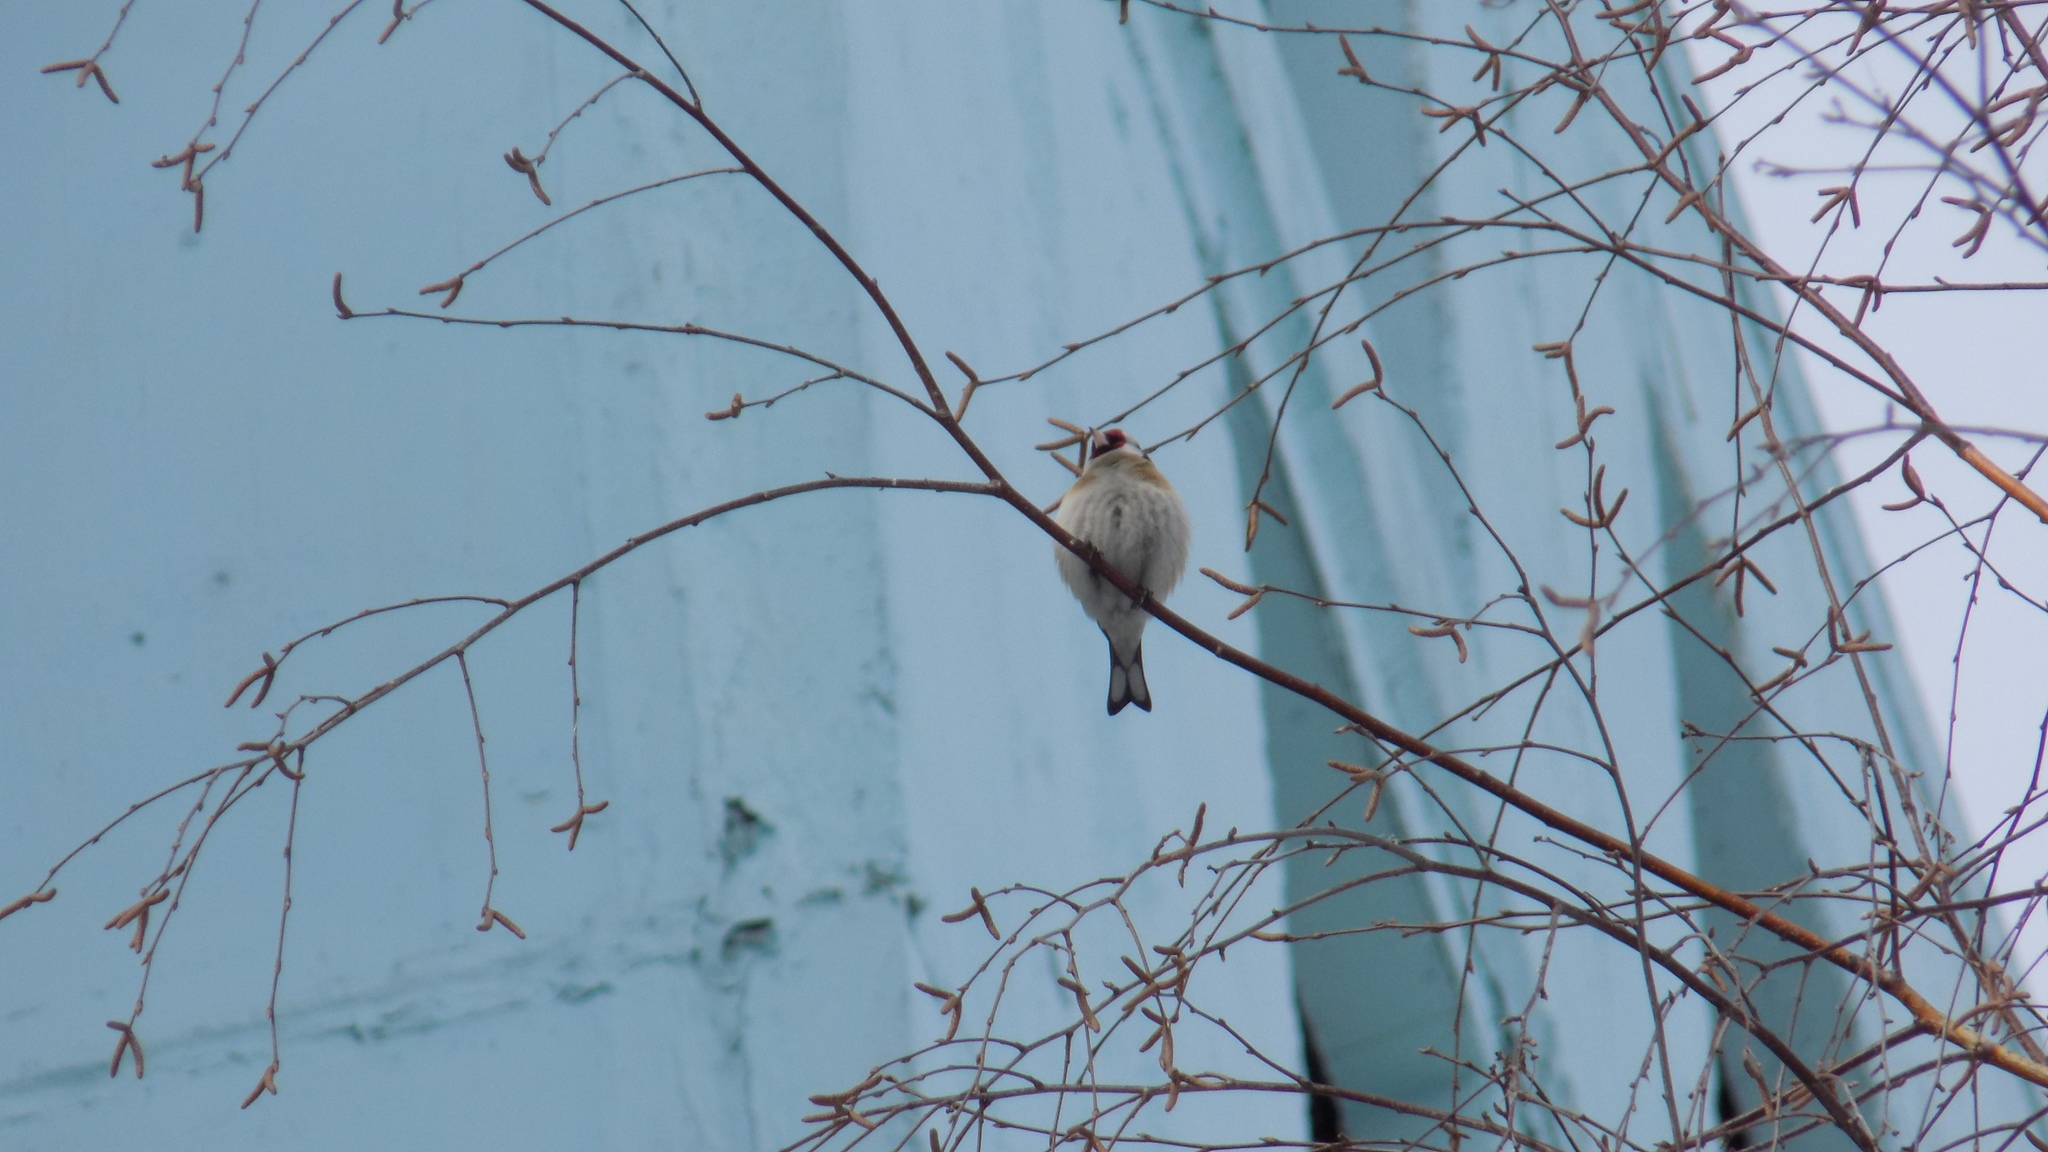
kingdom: Animalia
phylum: Chordata
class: Aves
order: Passeriformes
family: Fringillidae
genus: Carduelis
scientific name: Carduelis carduelis
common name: European goldfinch
